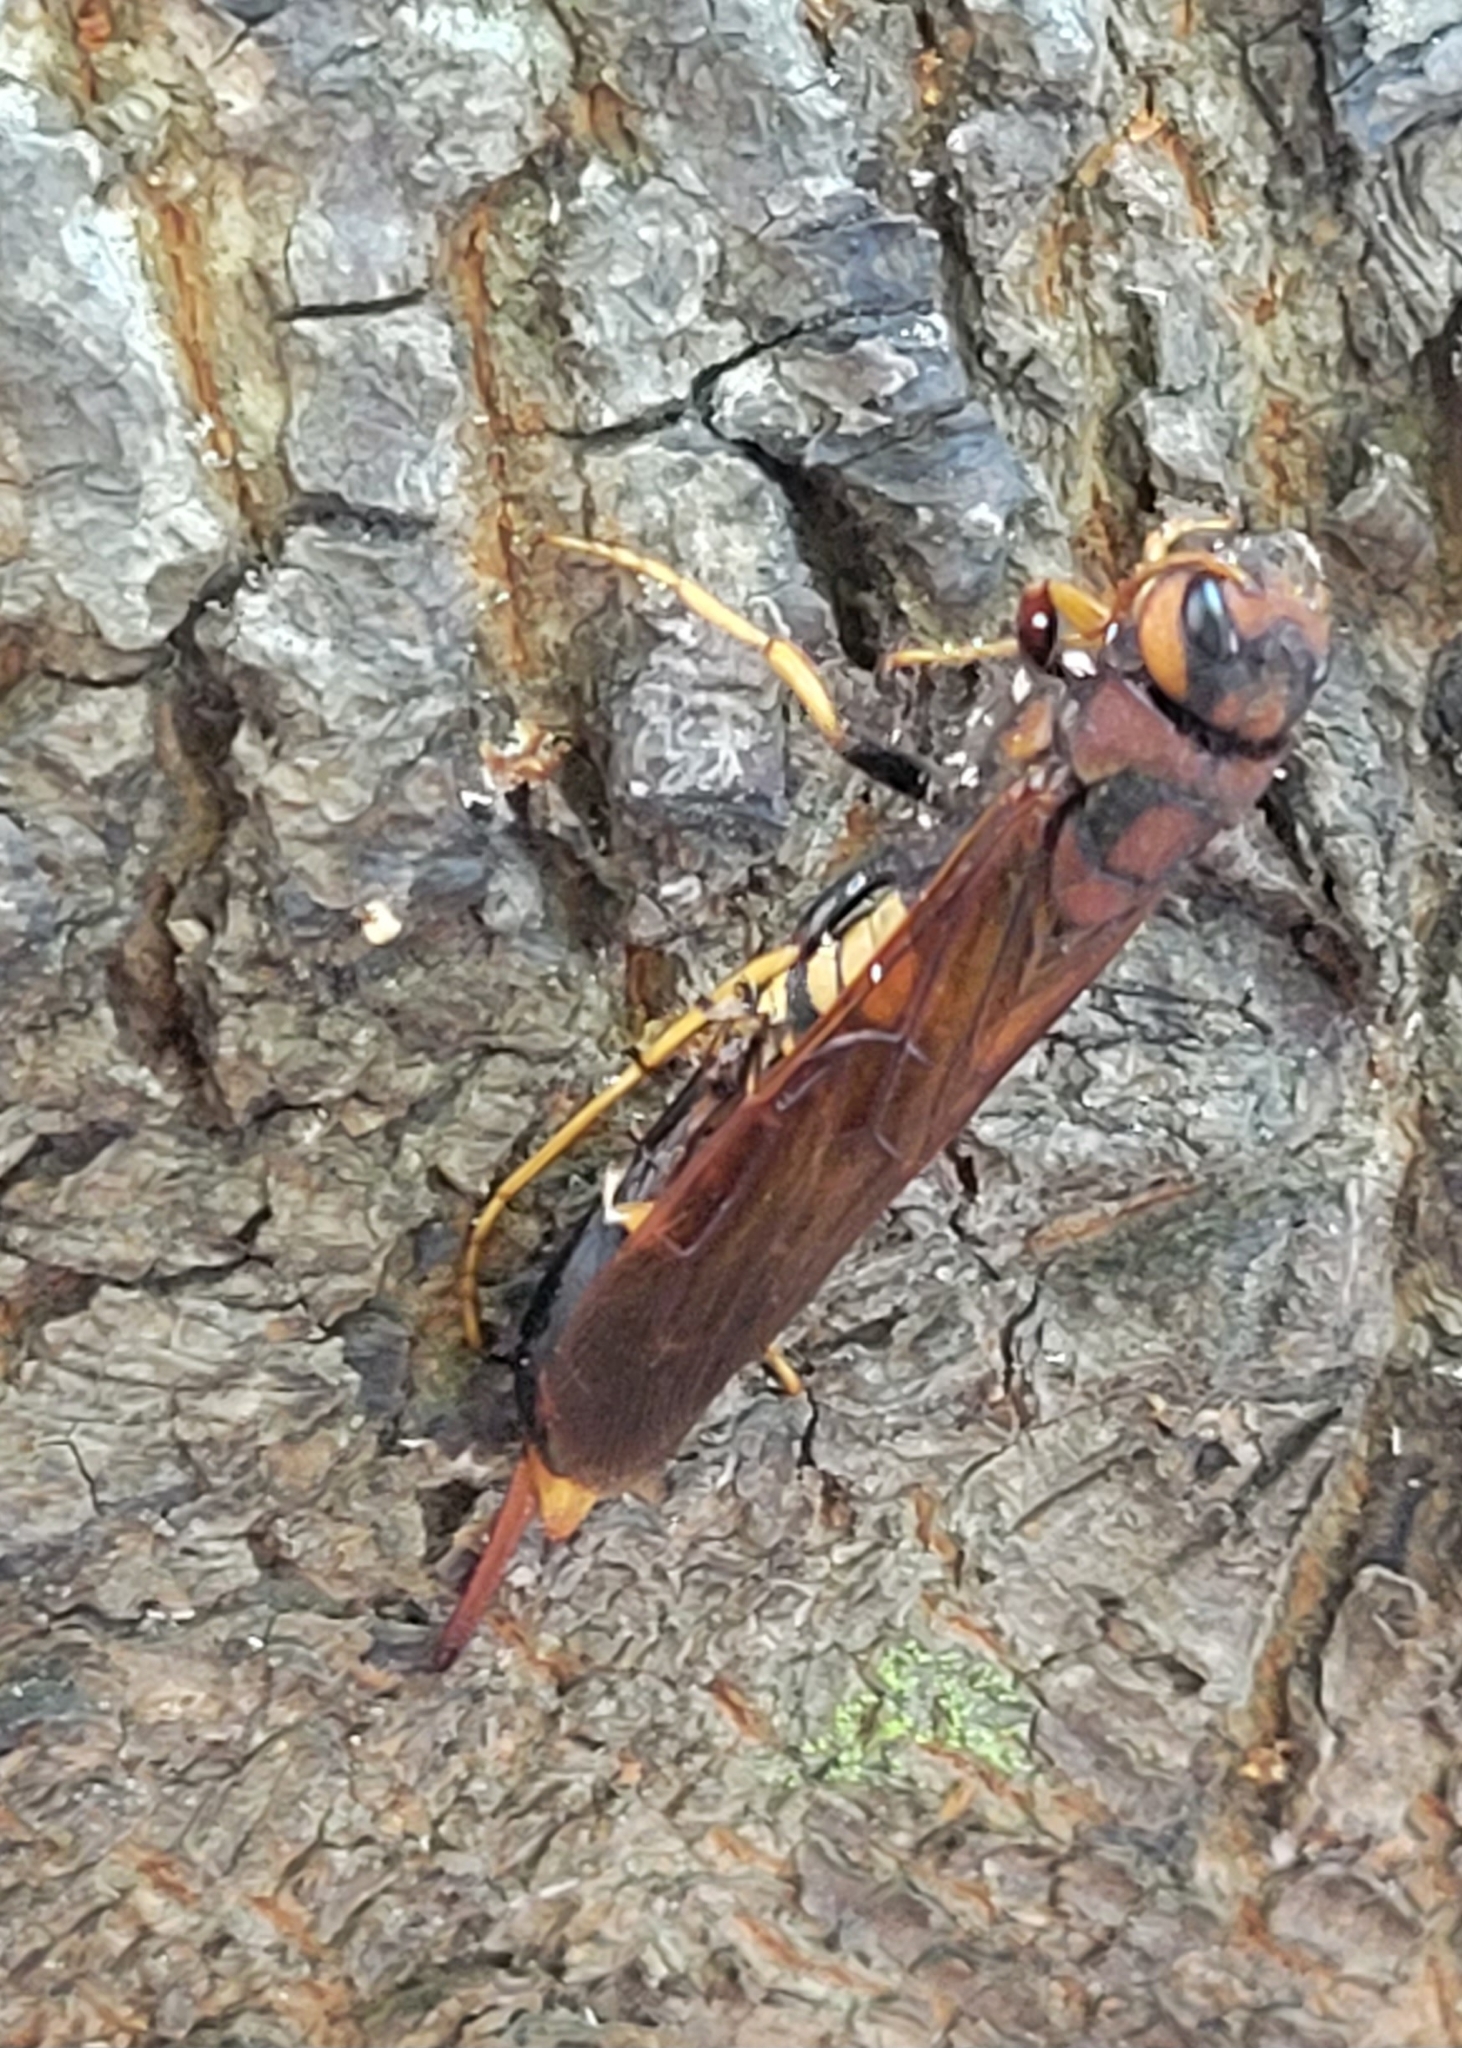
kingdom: Animalia
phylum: Arthropoda
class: Insecta
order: Hymenoptera
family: Siricidae
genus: Tremex
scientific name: Tremex columba
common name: Wasp
